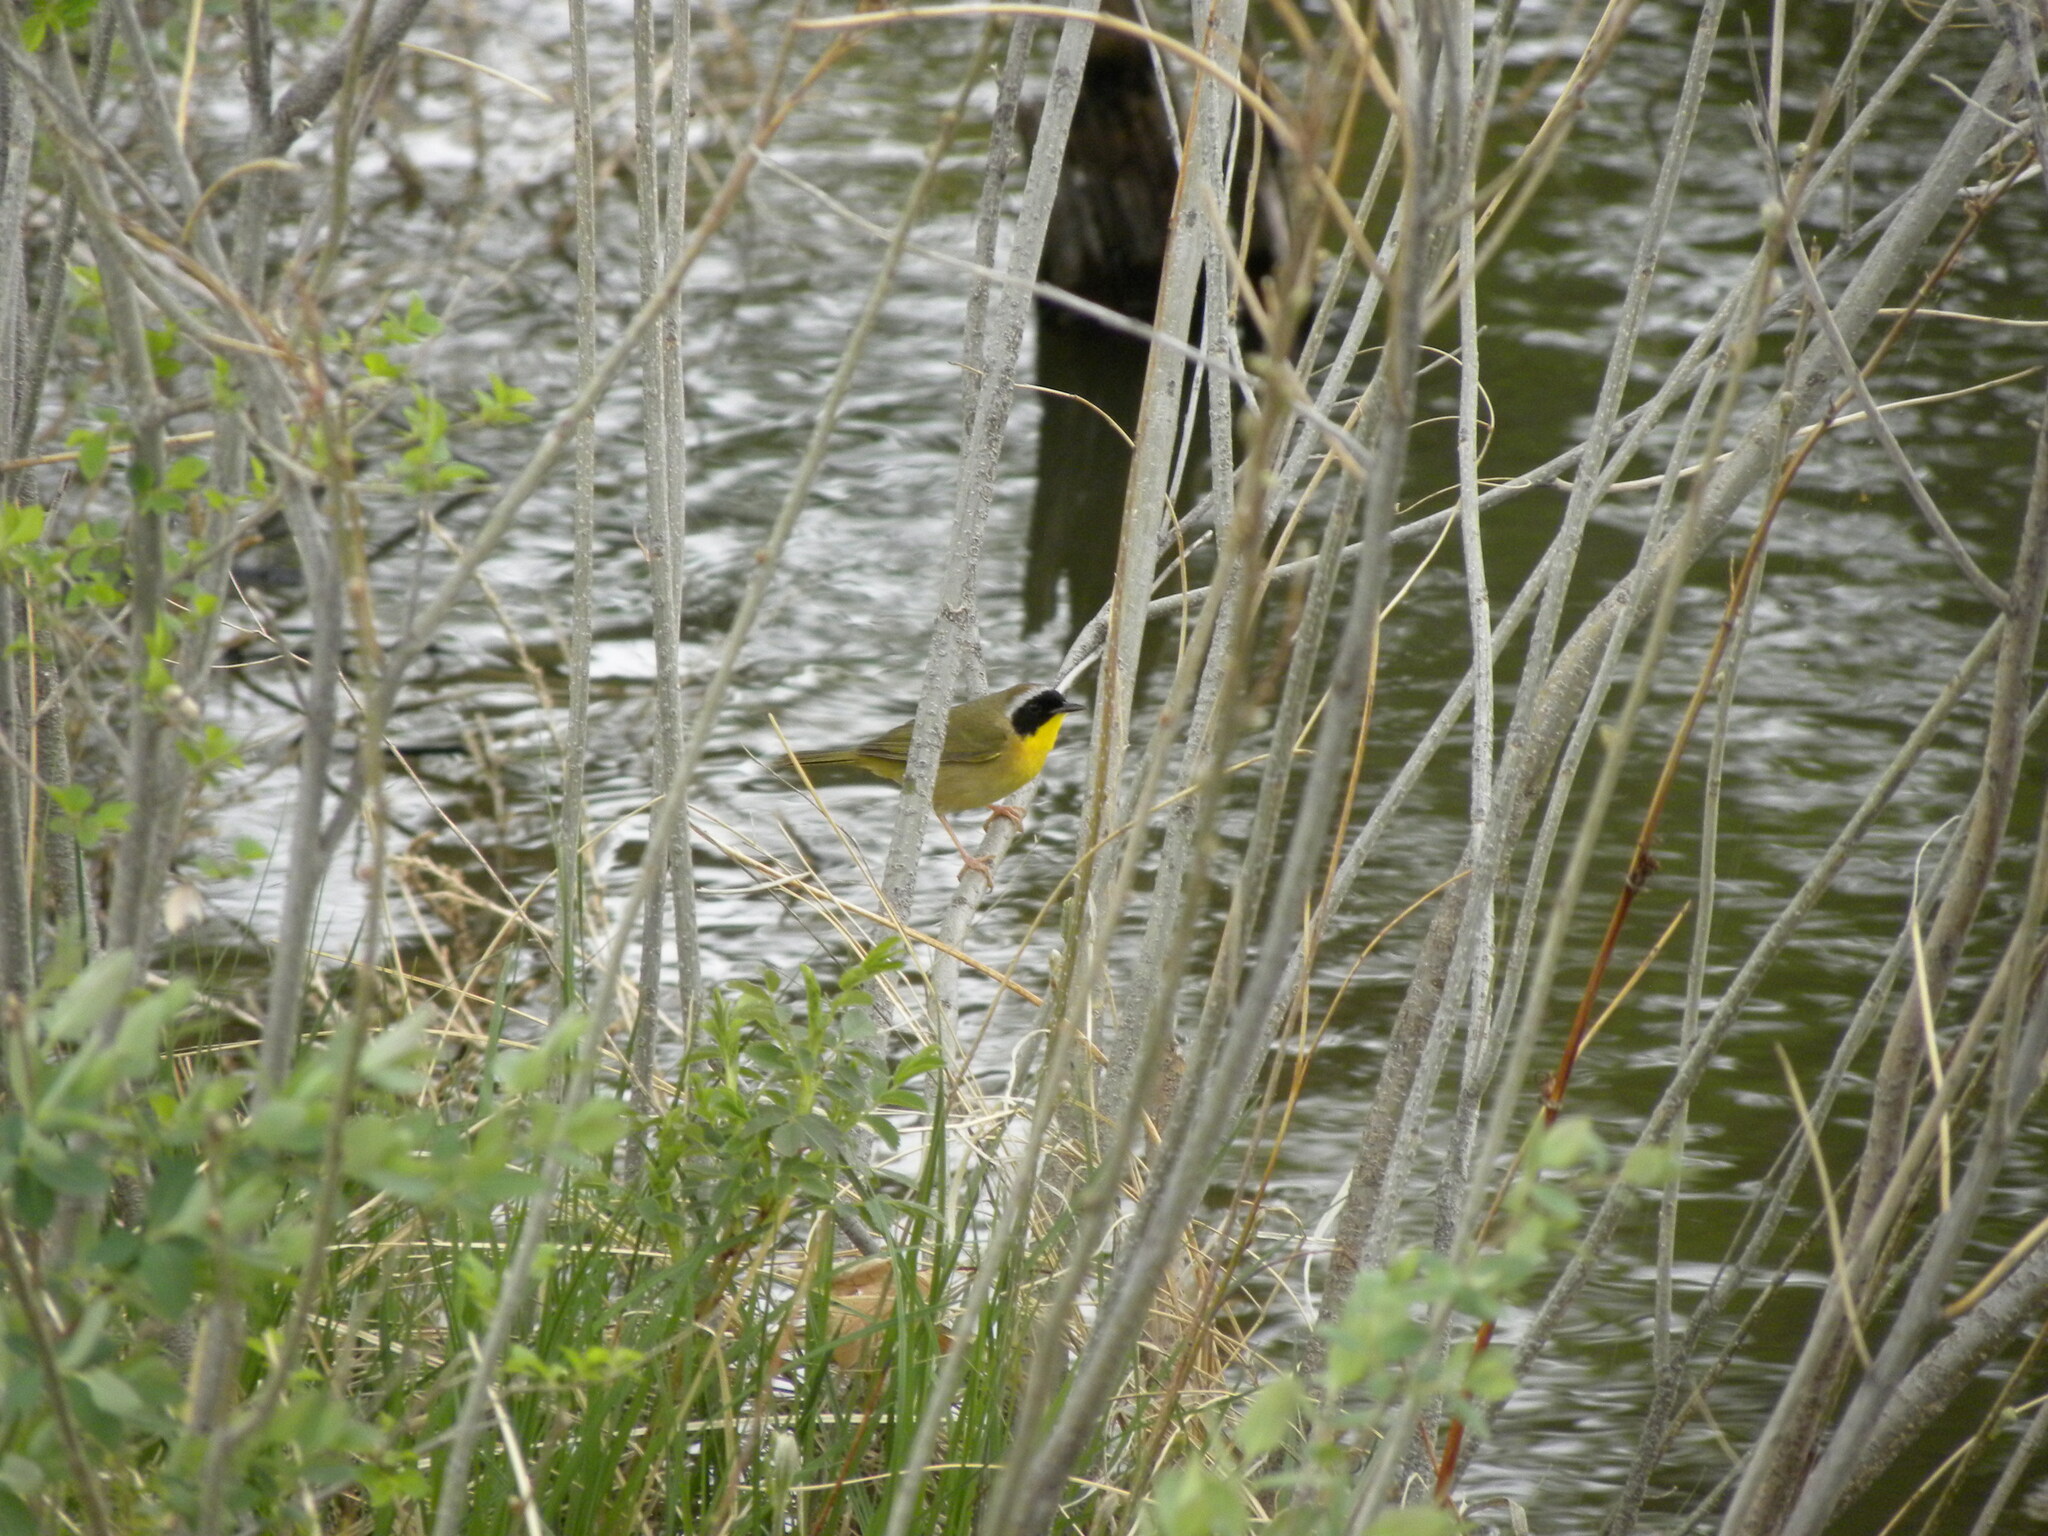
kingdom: Animalia
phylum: Chordata
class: Aves
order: Passeriformes
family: Parulidae
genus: Geothlypis
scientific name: Geothlypis trichas
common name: Common yellowthroat
